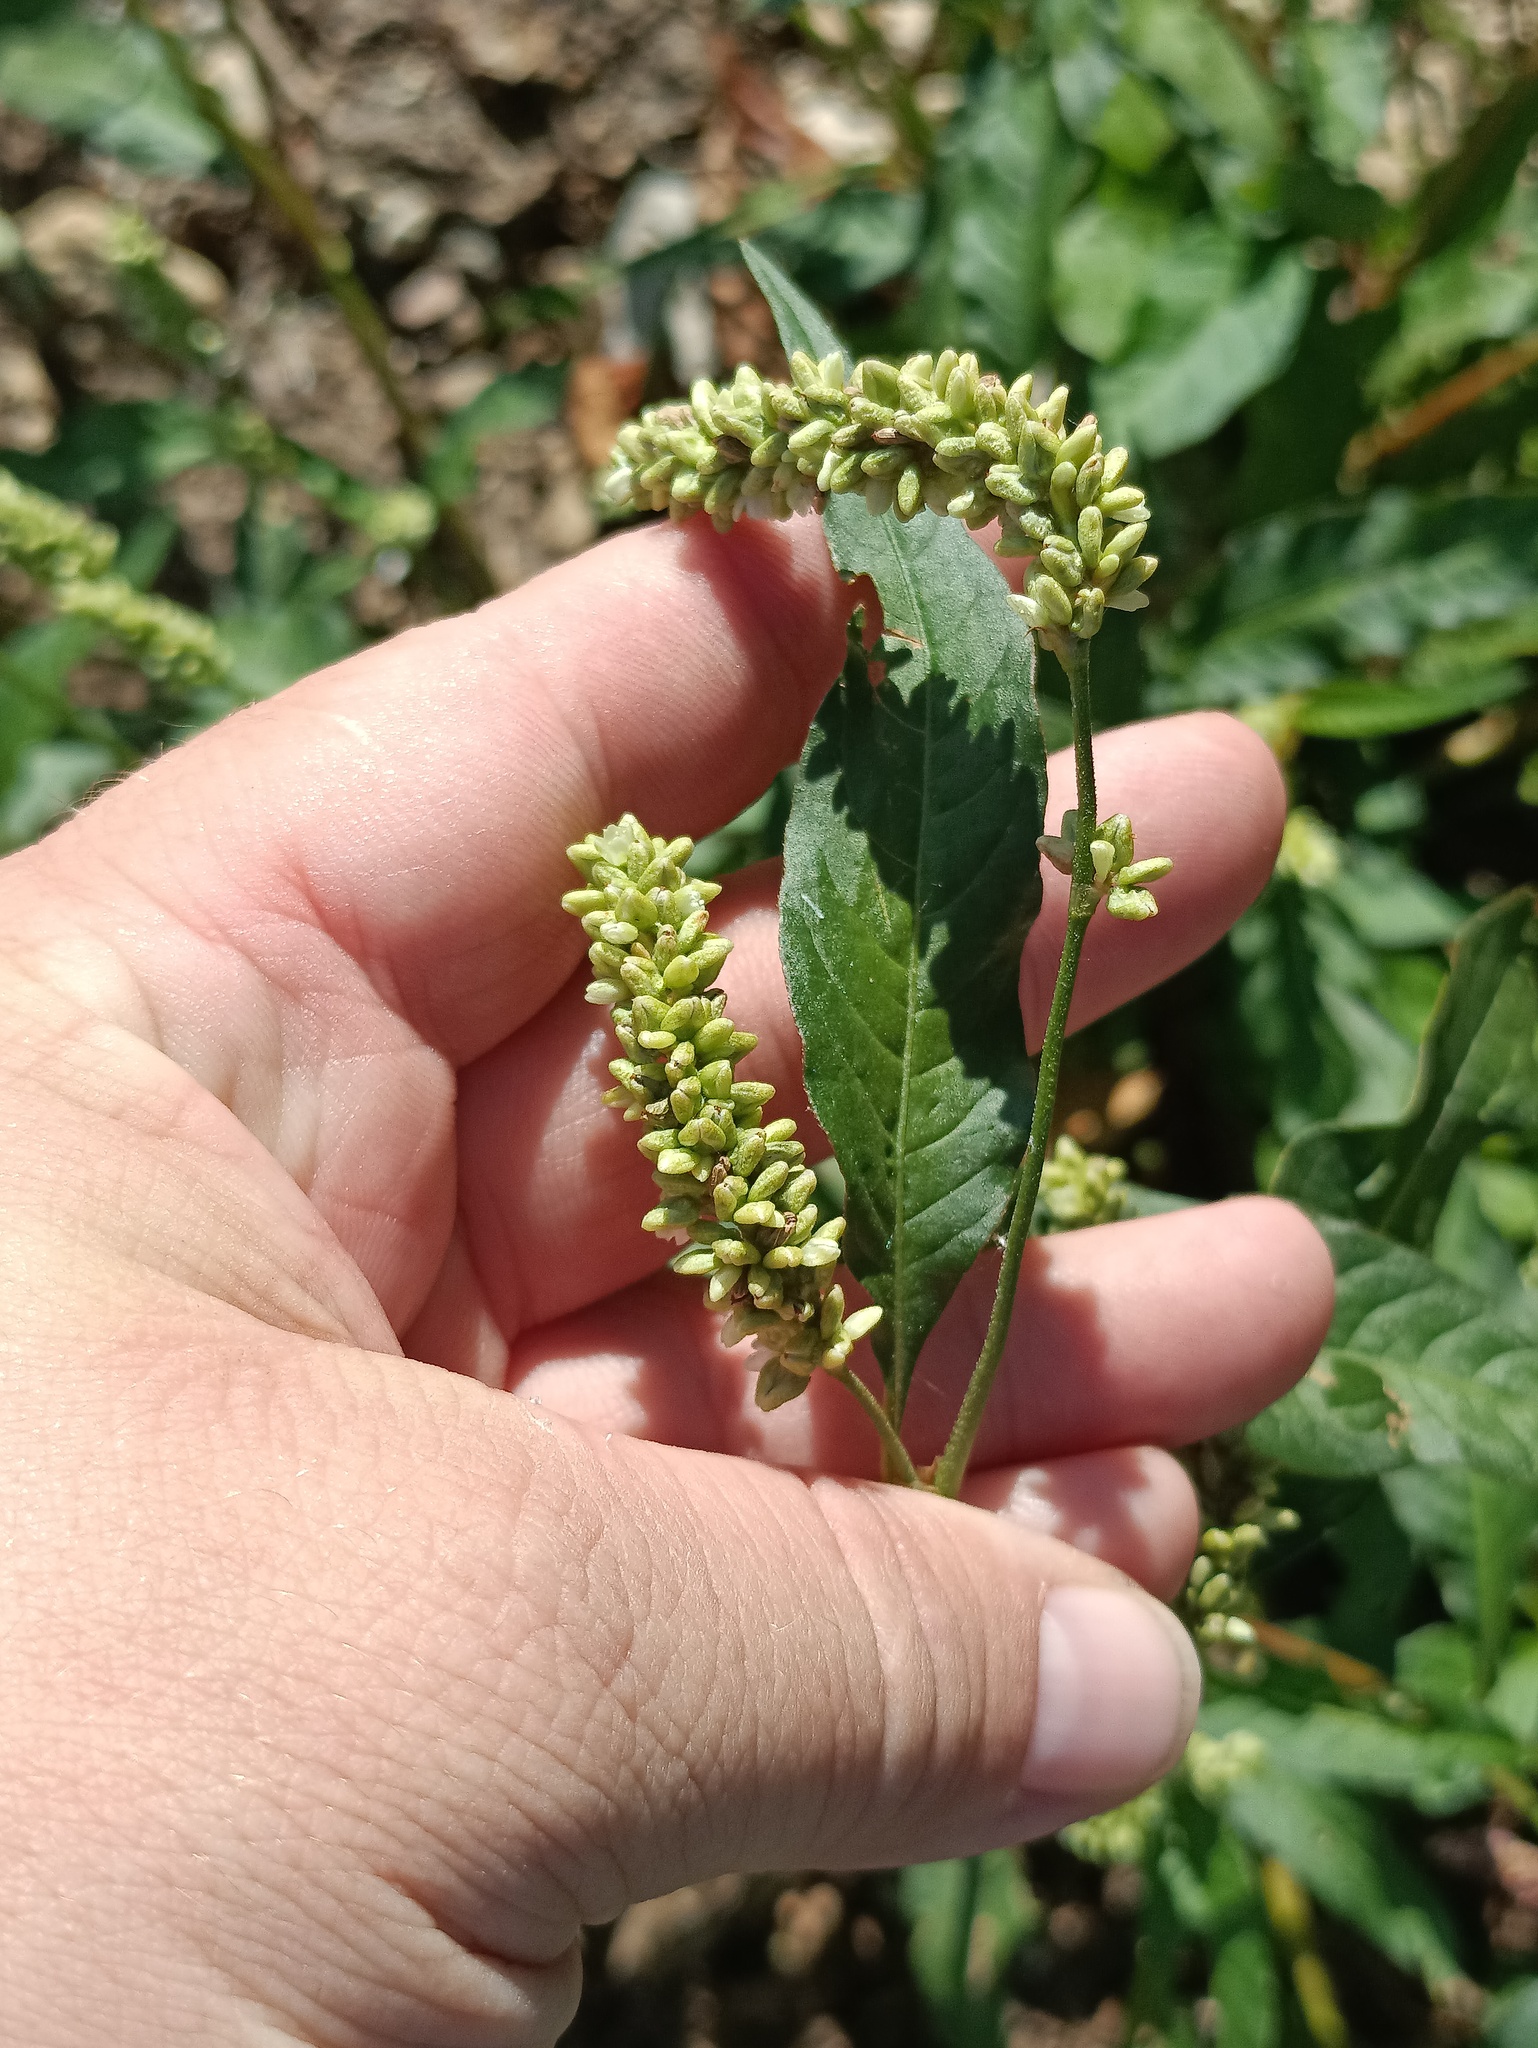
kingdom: Plantae
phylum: Tracheophyta
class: Magnoliopsida
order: Caryophyllales
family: Polygonaceae
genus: Persicaria
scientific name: Persicaria lapathifolia
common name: Curlytop knotweed
